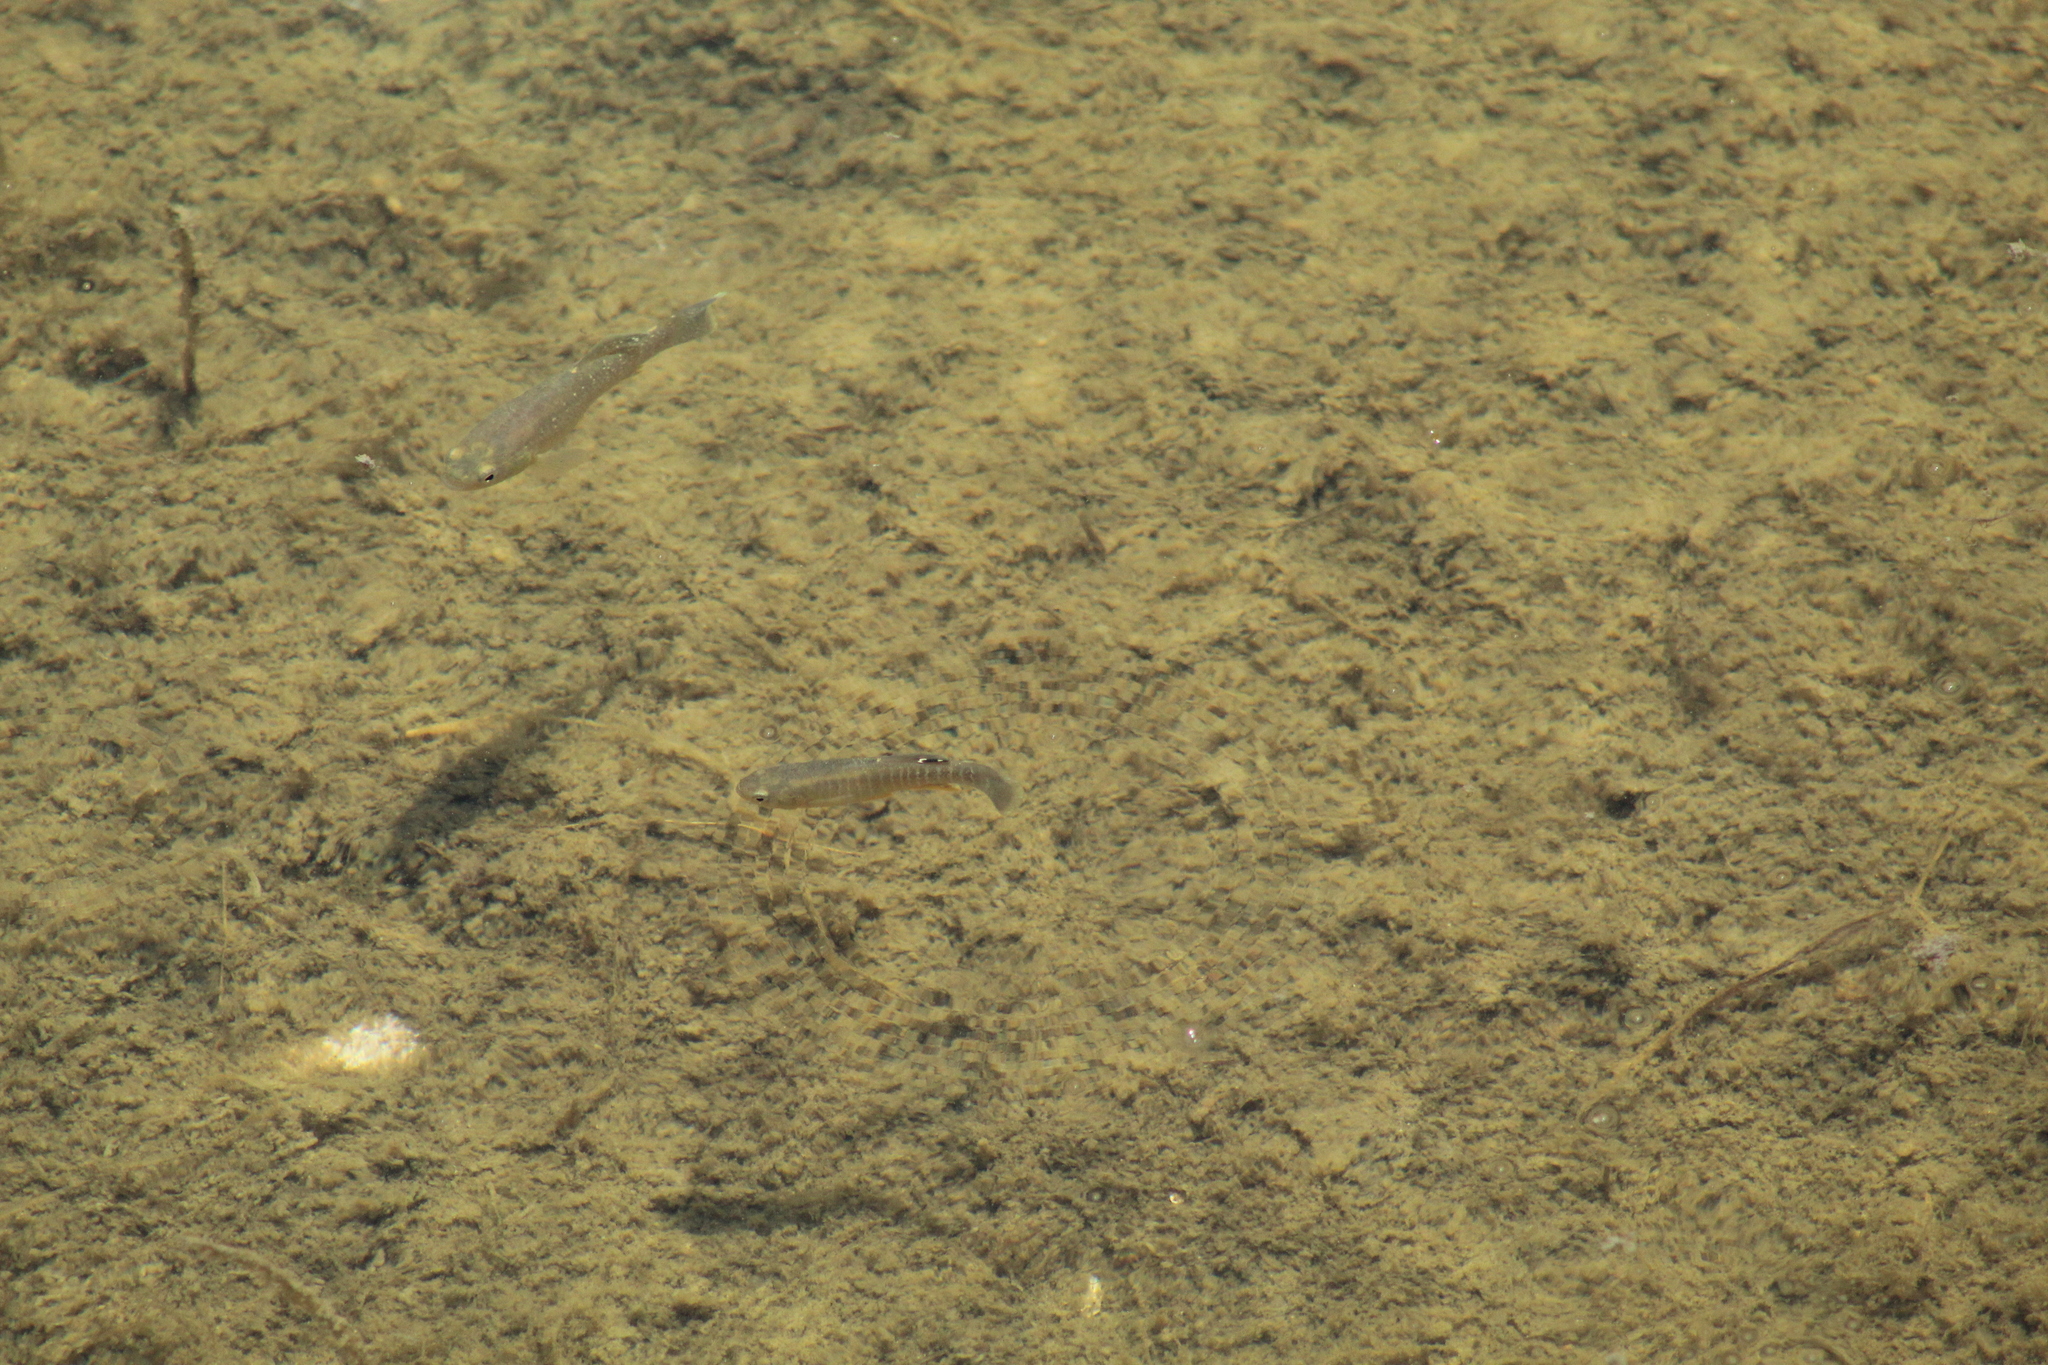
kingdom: Animalia
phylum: Chordata
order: Cyprinodontiformes
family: Fundulidae
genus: Fundulus
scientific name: Fundulus heteroclitus
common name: Mummichog
